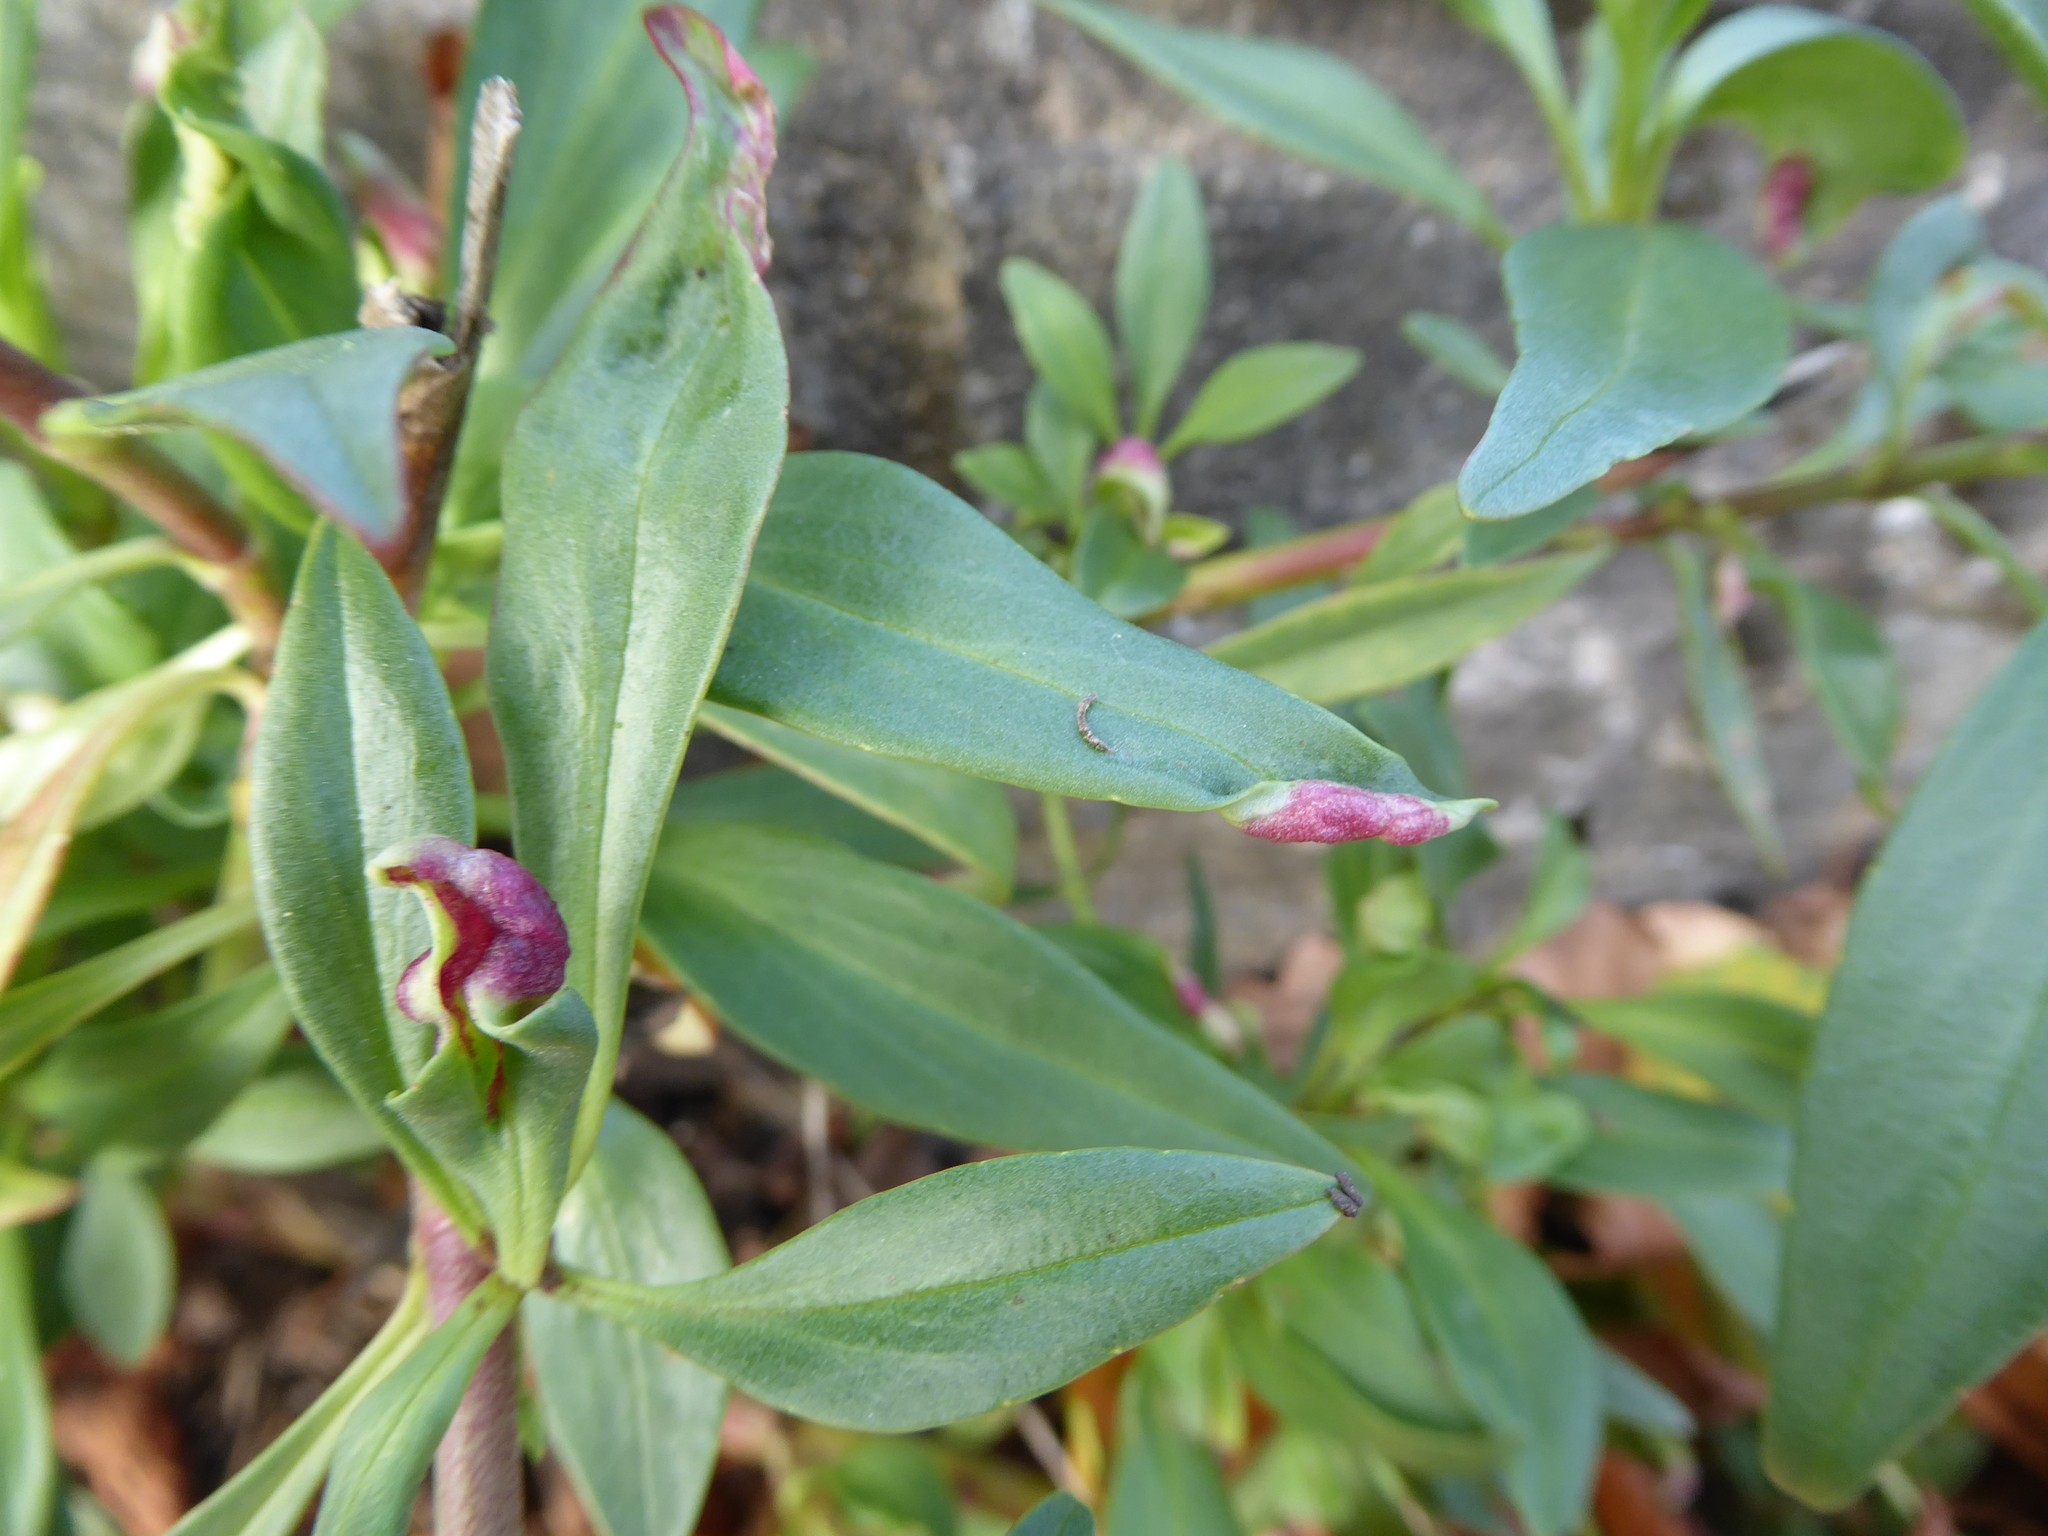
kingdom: Animalia
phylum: Arthropoda
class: Insecta
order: Hemiptera
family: Triozidae
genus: Trioza
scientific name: Trioza centranthi
